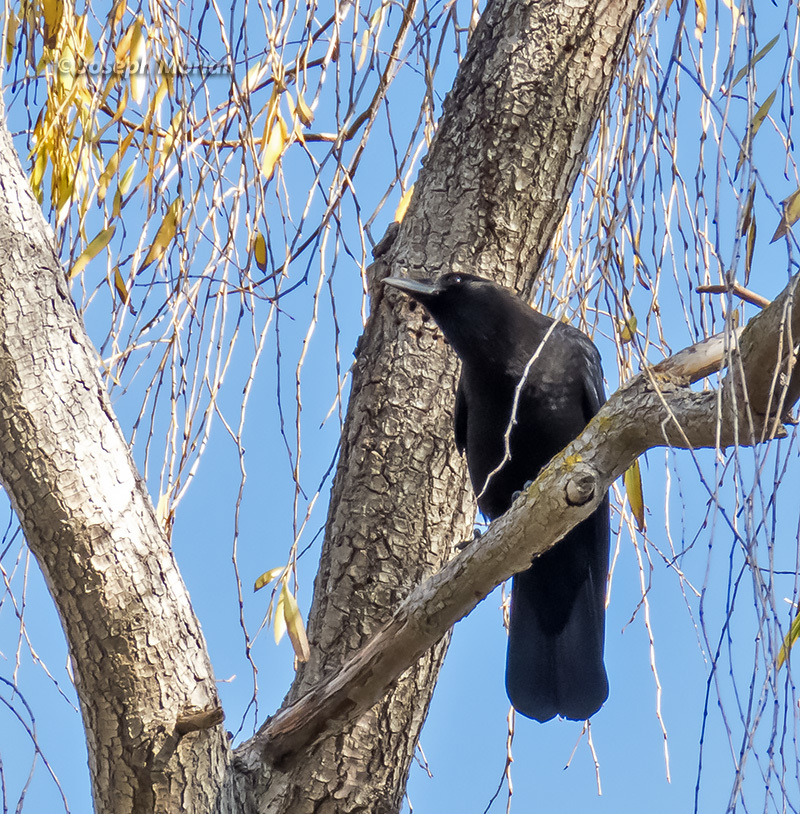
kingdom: Animalia
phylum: Chordata
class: Aves
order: Passeriformes
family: Corvidae
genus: Corvus
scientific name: Corvus brachyrhynchos
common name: American crow
